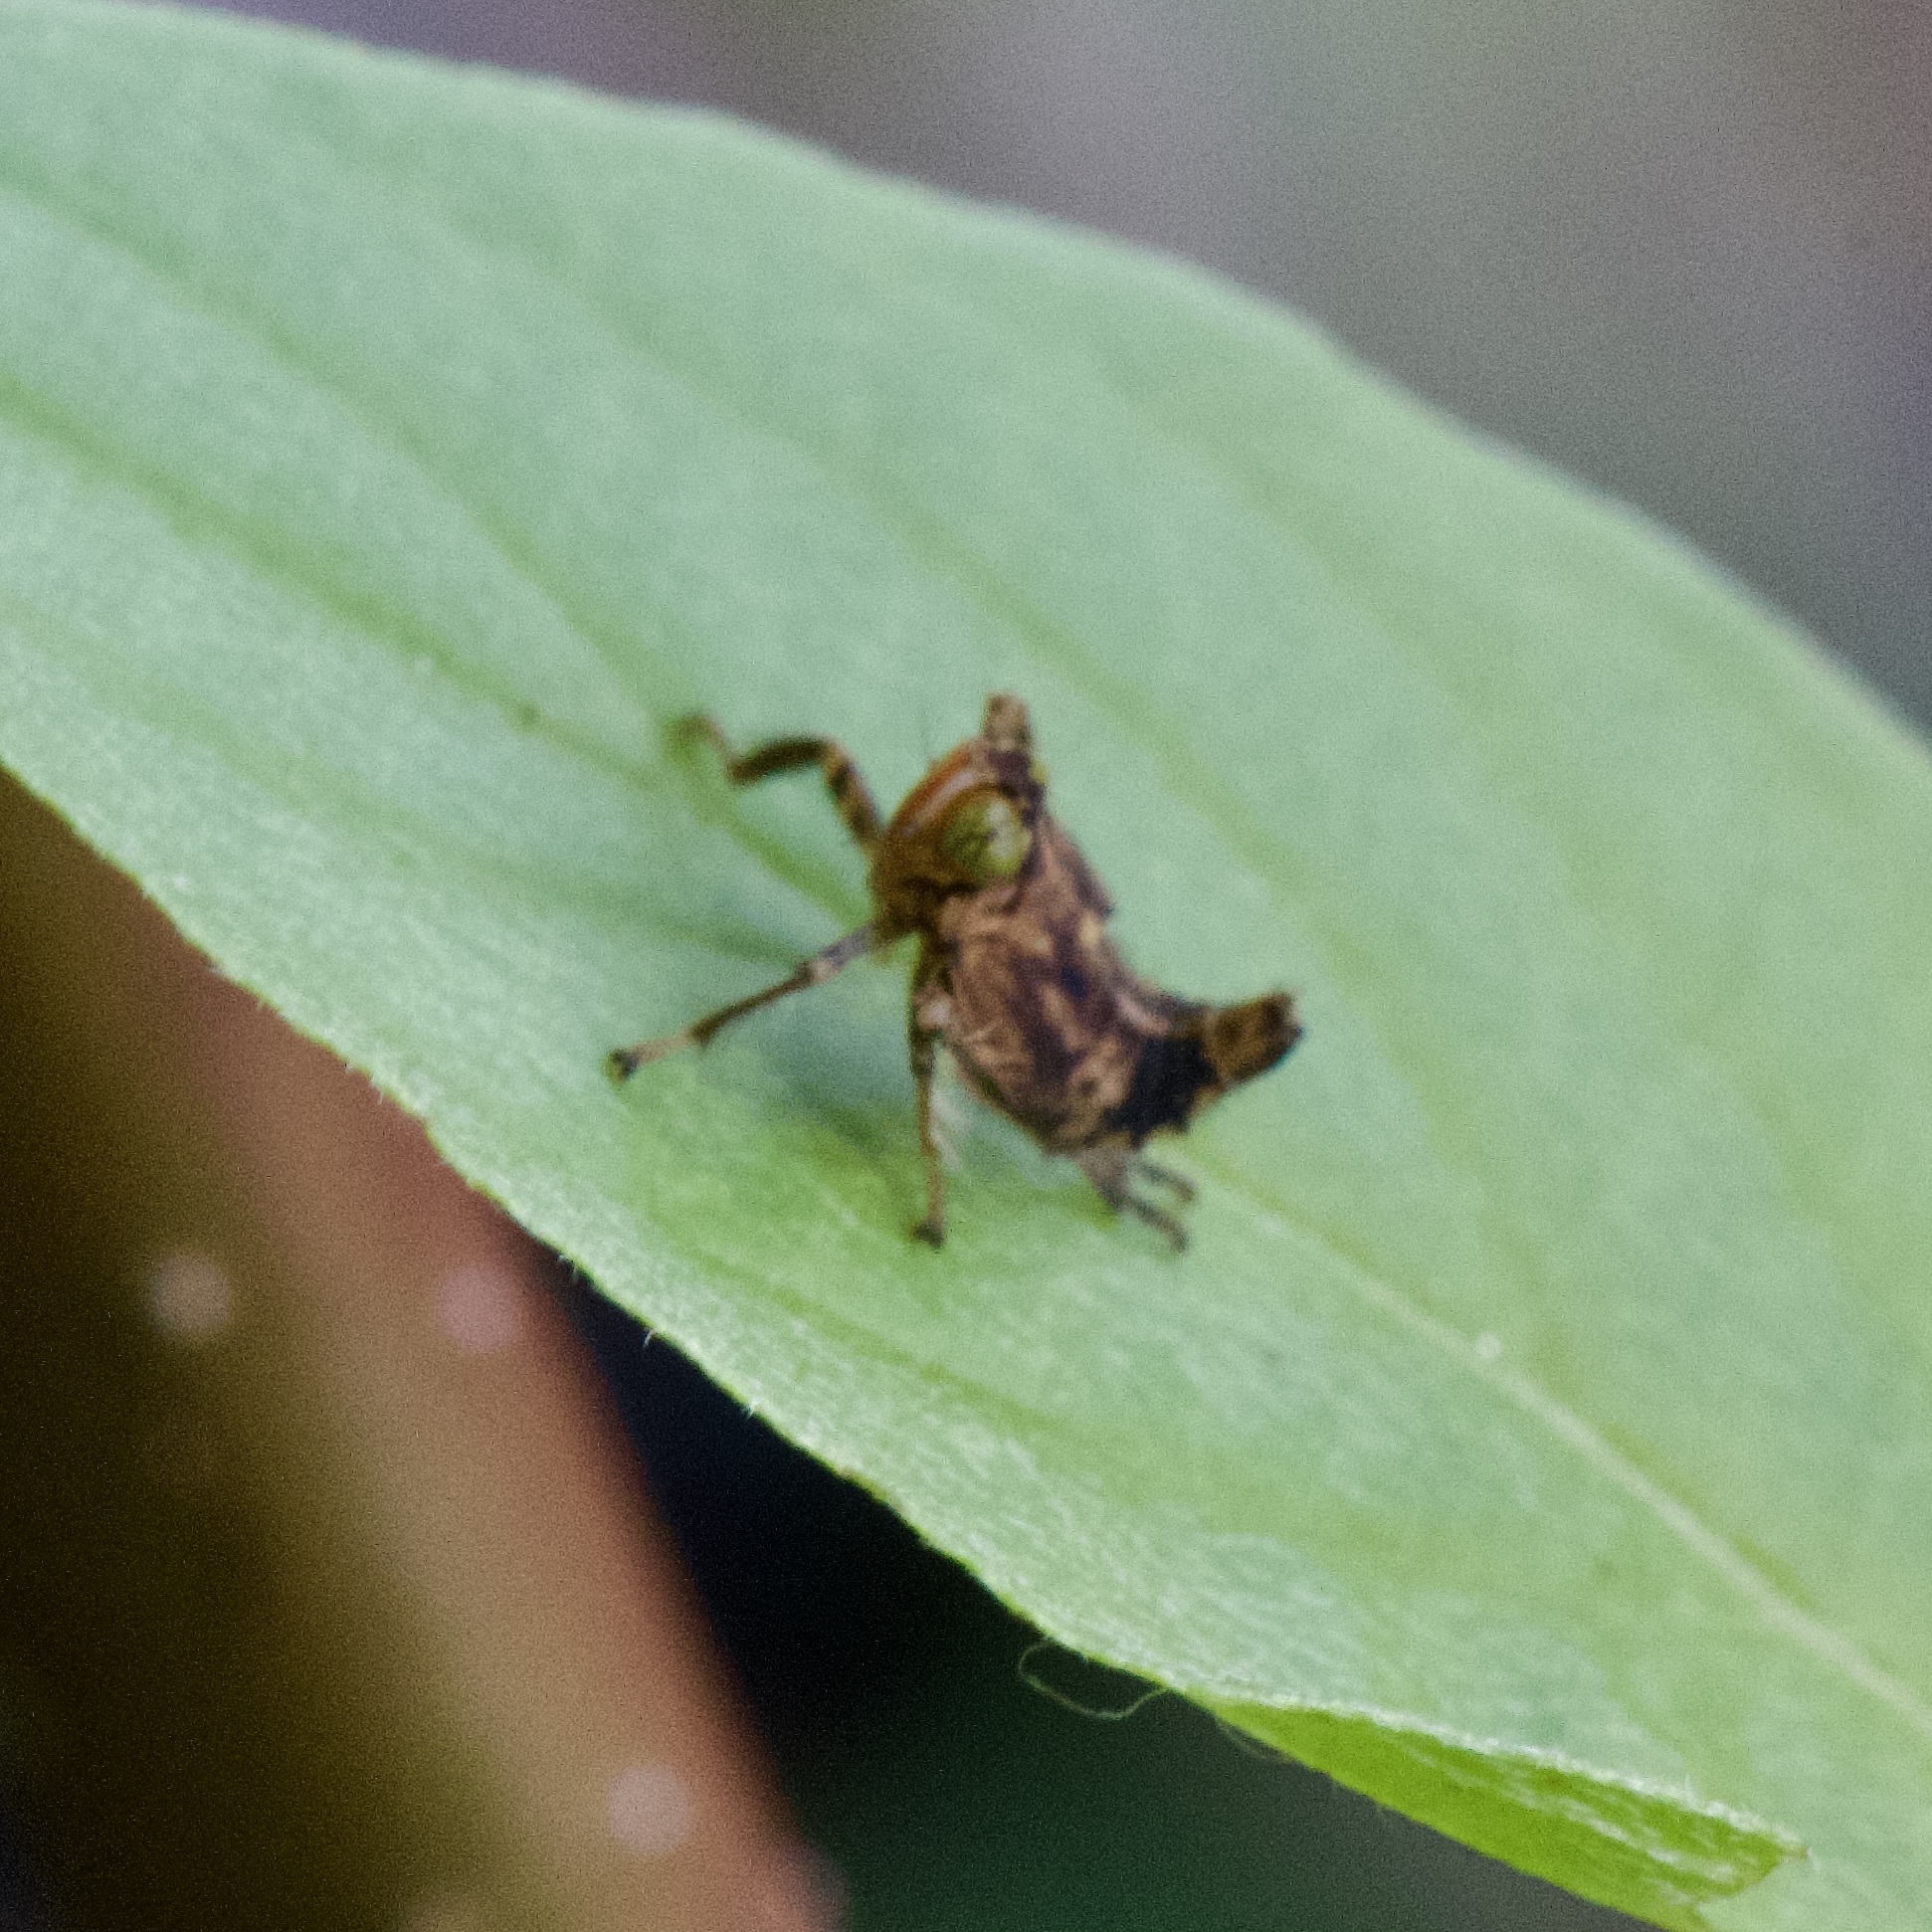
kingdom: Animalia
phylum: Arthropoda
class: Insecta
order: Hemiptera
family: Cicadellidae
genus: Jikradia
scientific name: Jikradia olitoria
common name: Coppery leafhopper
